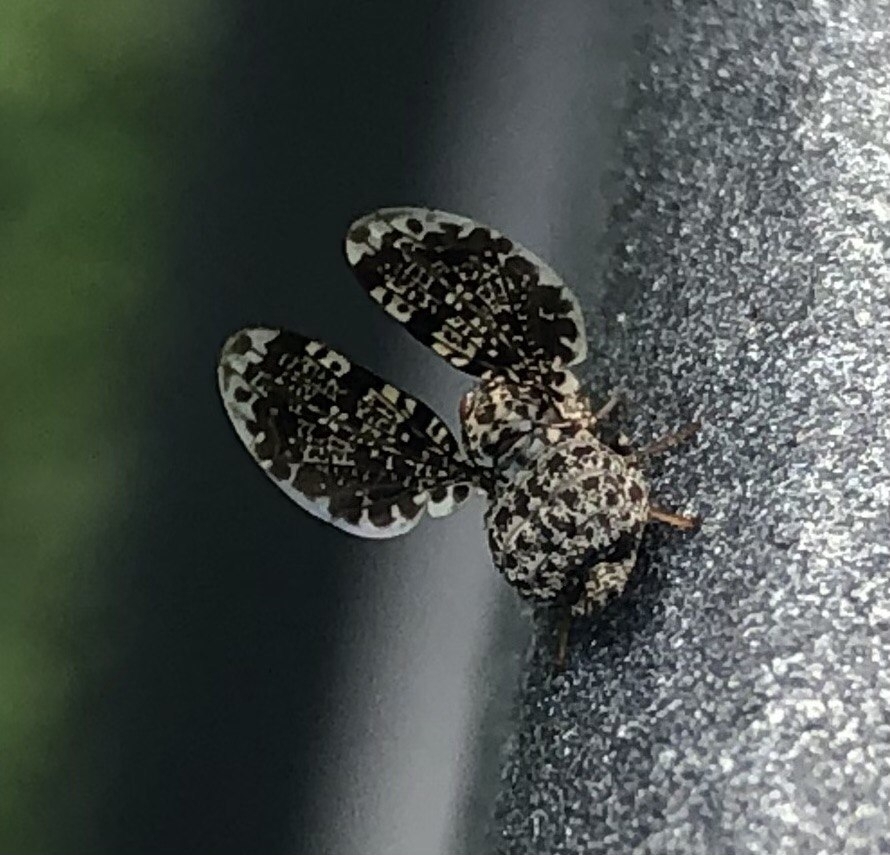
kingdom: Animalia
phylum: Arthropoda
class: Insecta
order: Diptera
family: Ulidiidae
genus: Callopistromyia
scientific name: Callopistromyia annulipes
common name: Peacock fly
